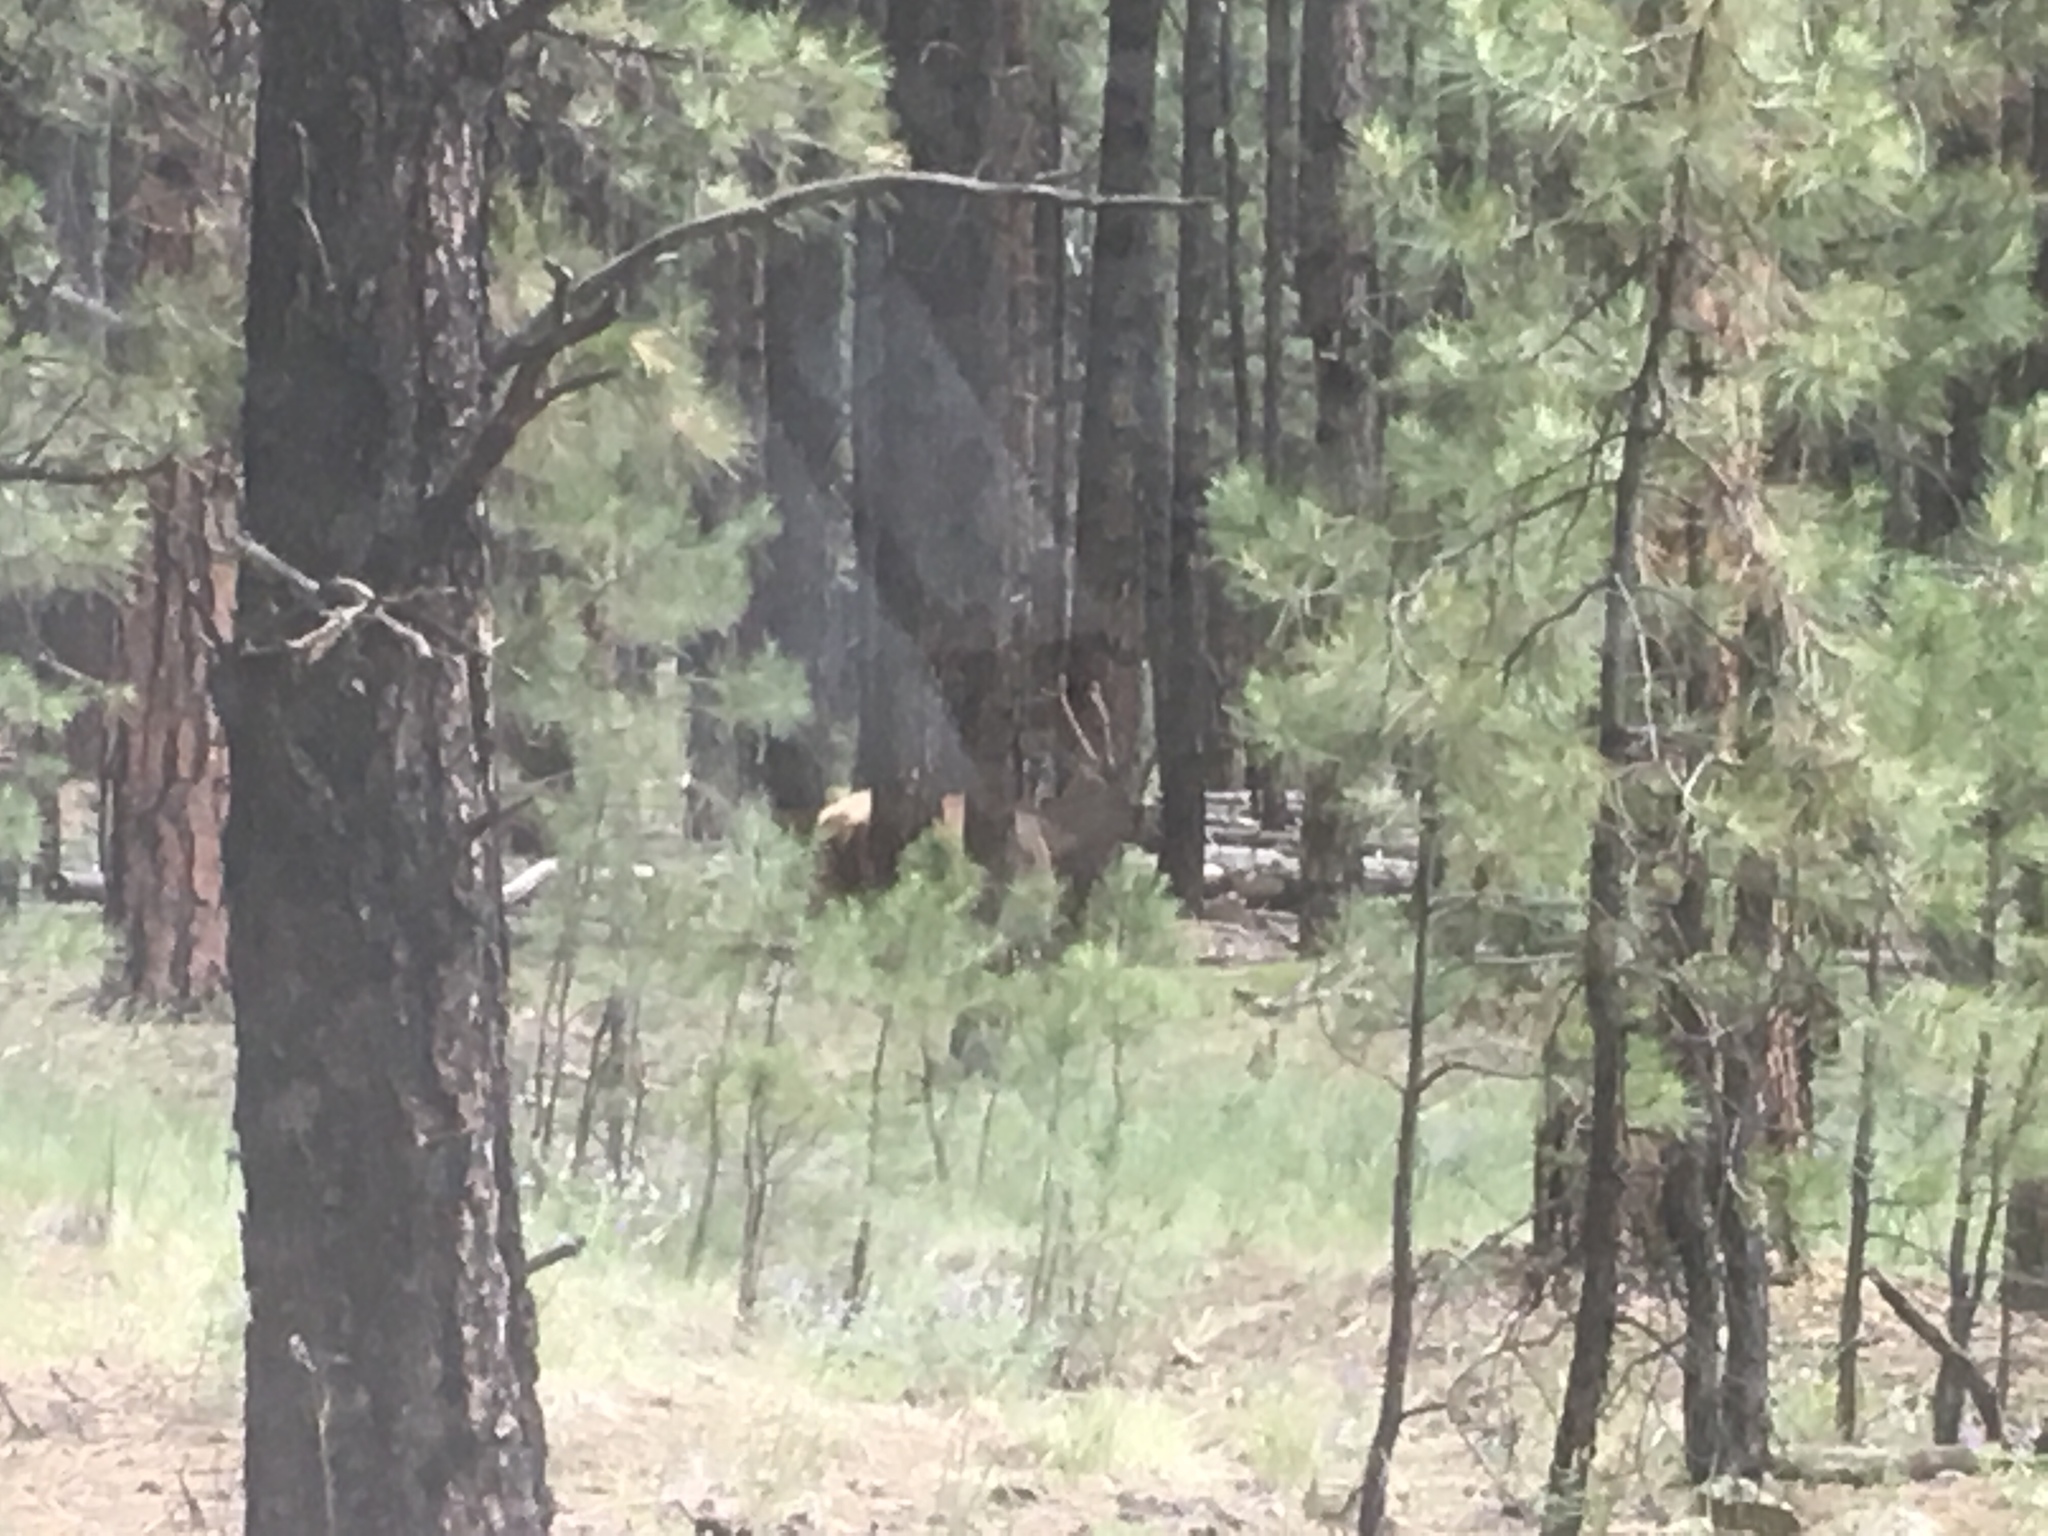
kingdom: Animalia
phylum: Chordata
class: Mammalia
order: Artiodactyla
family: Cervidae
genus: Cervus
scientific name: Cervus elaphus
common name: Red deer
